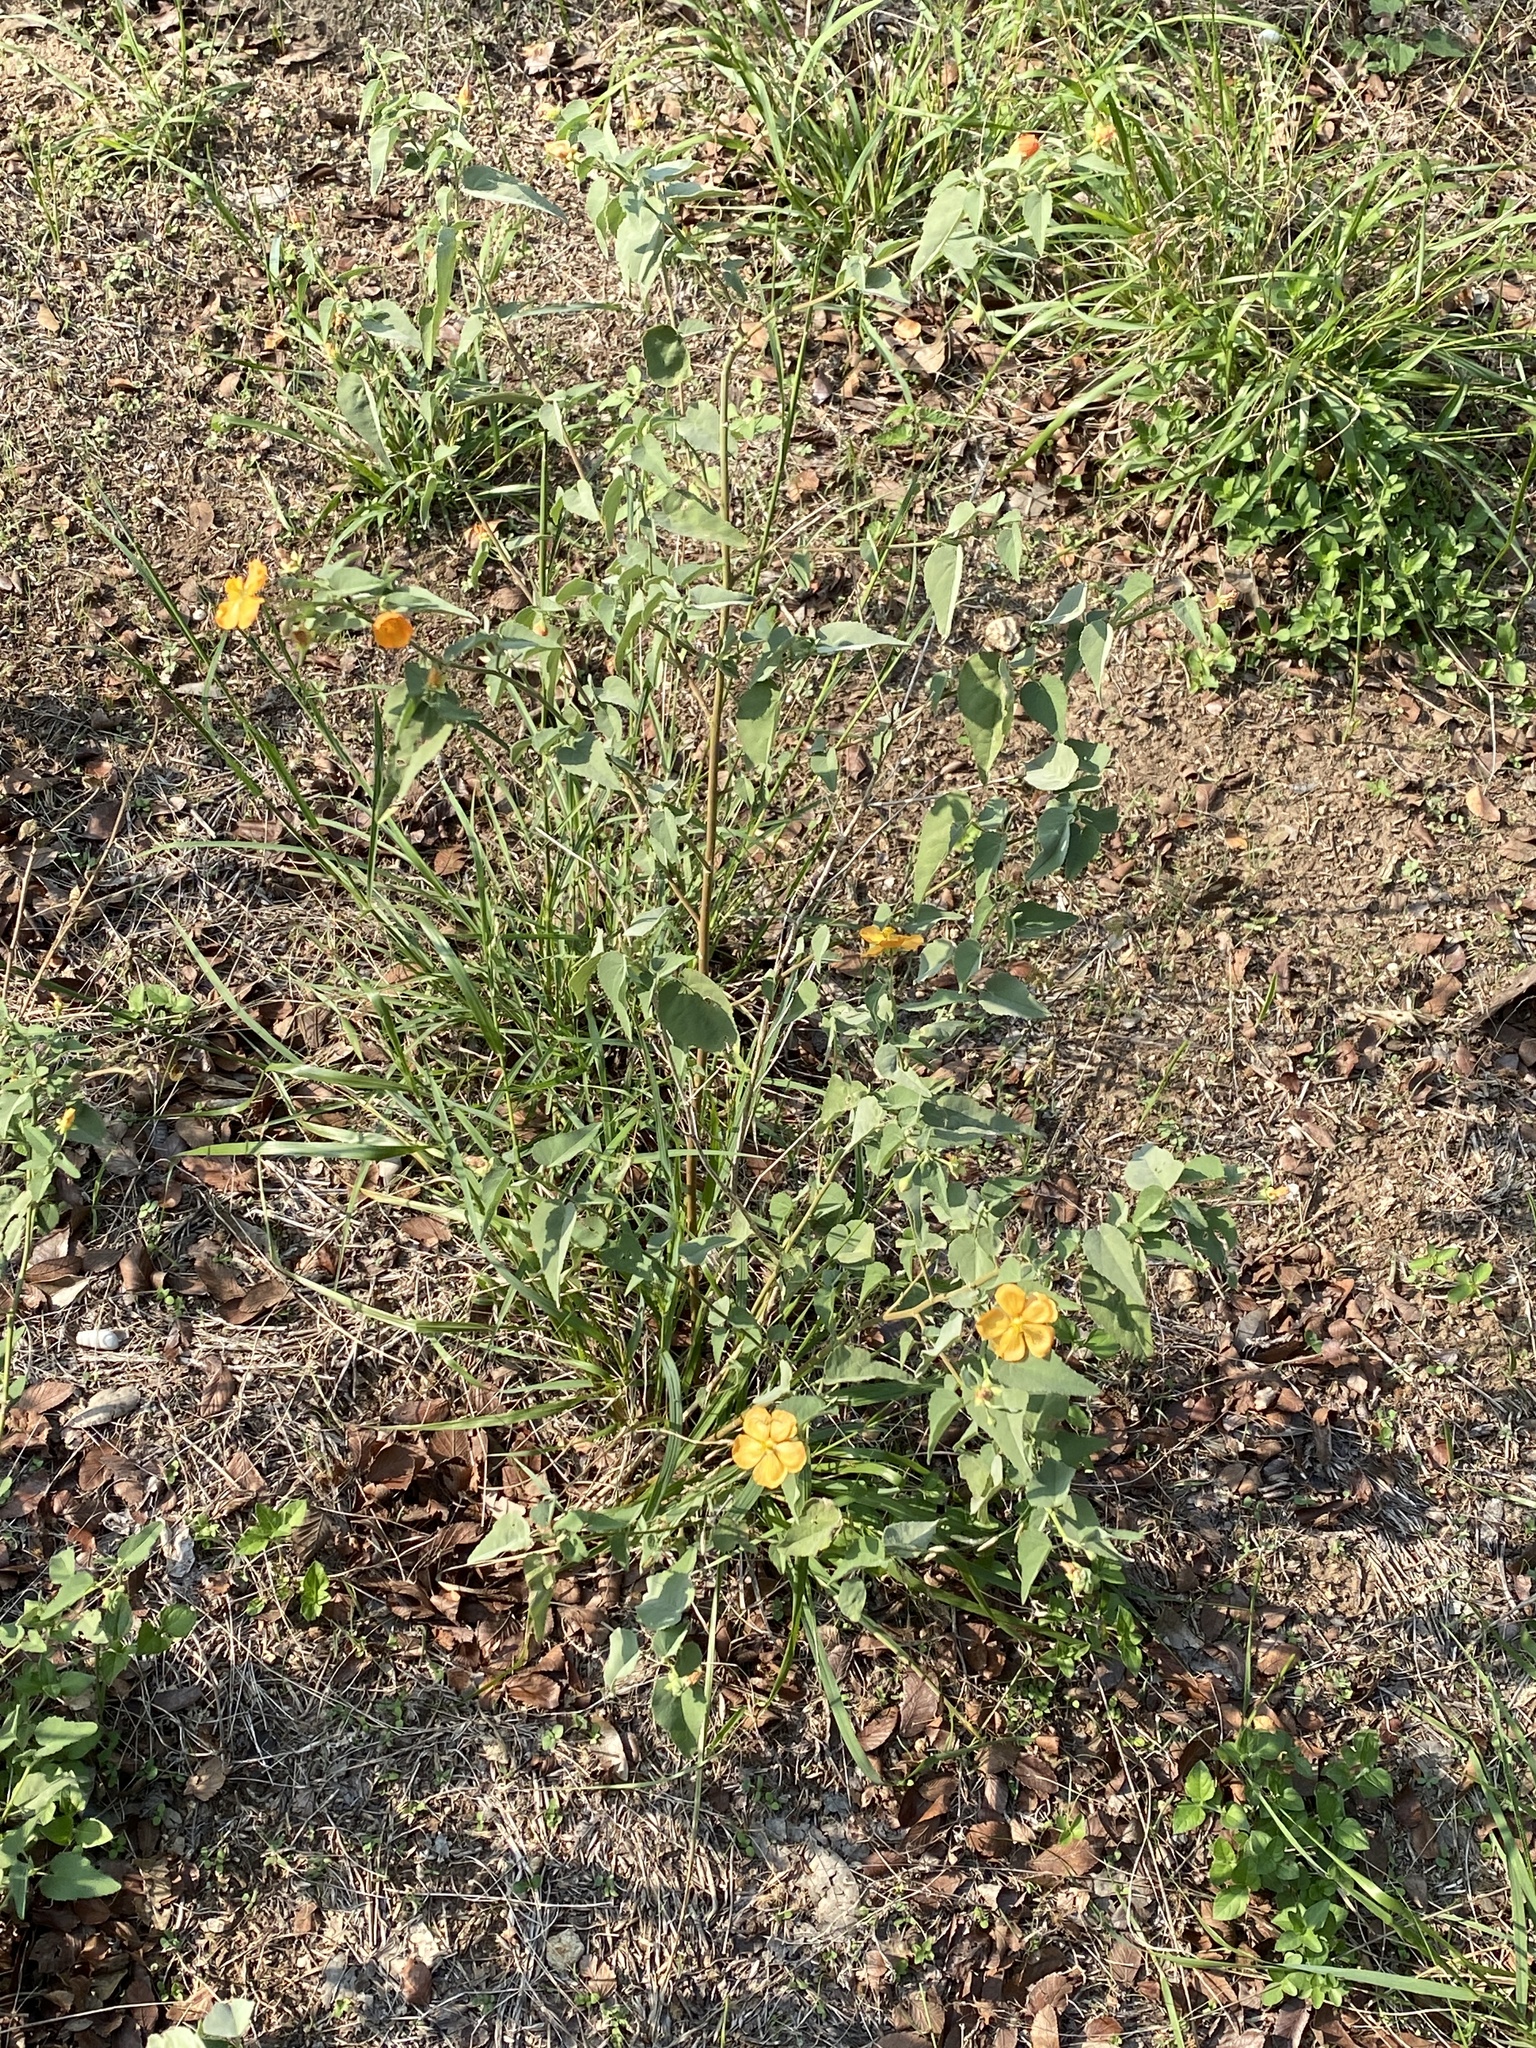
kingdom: Plantae
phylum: Tracheophyta
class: Magnoliopsida
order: Malvales
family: Malvaceae
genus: Abutilon
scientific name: Abutilon fruticosum
